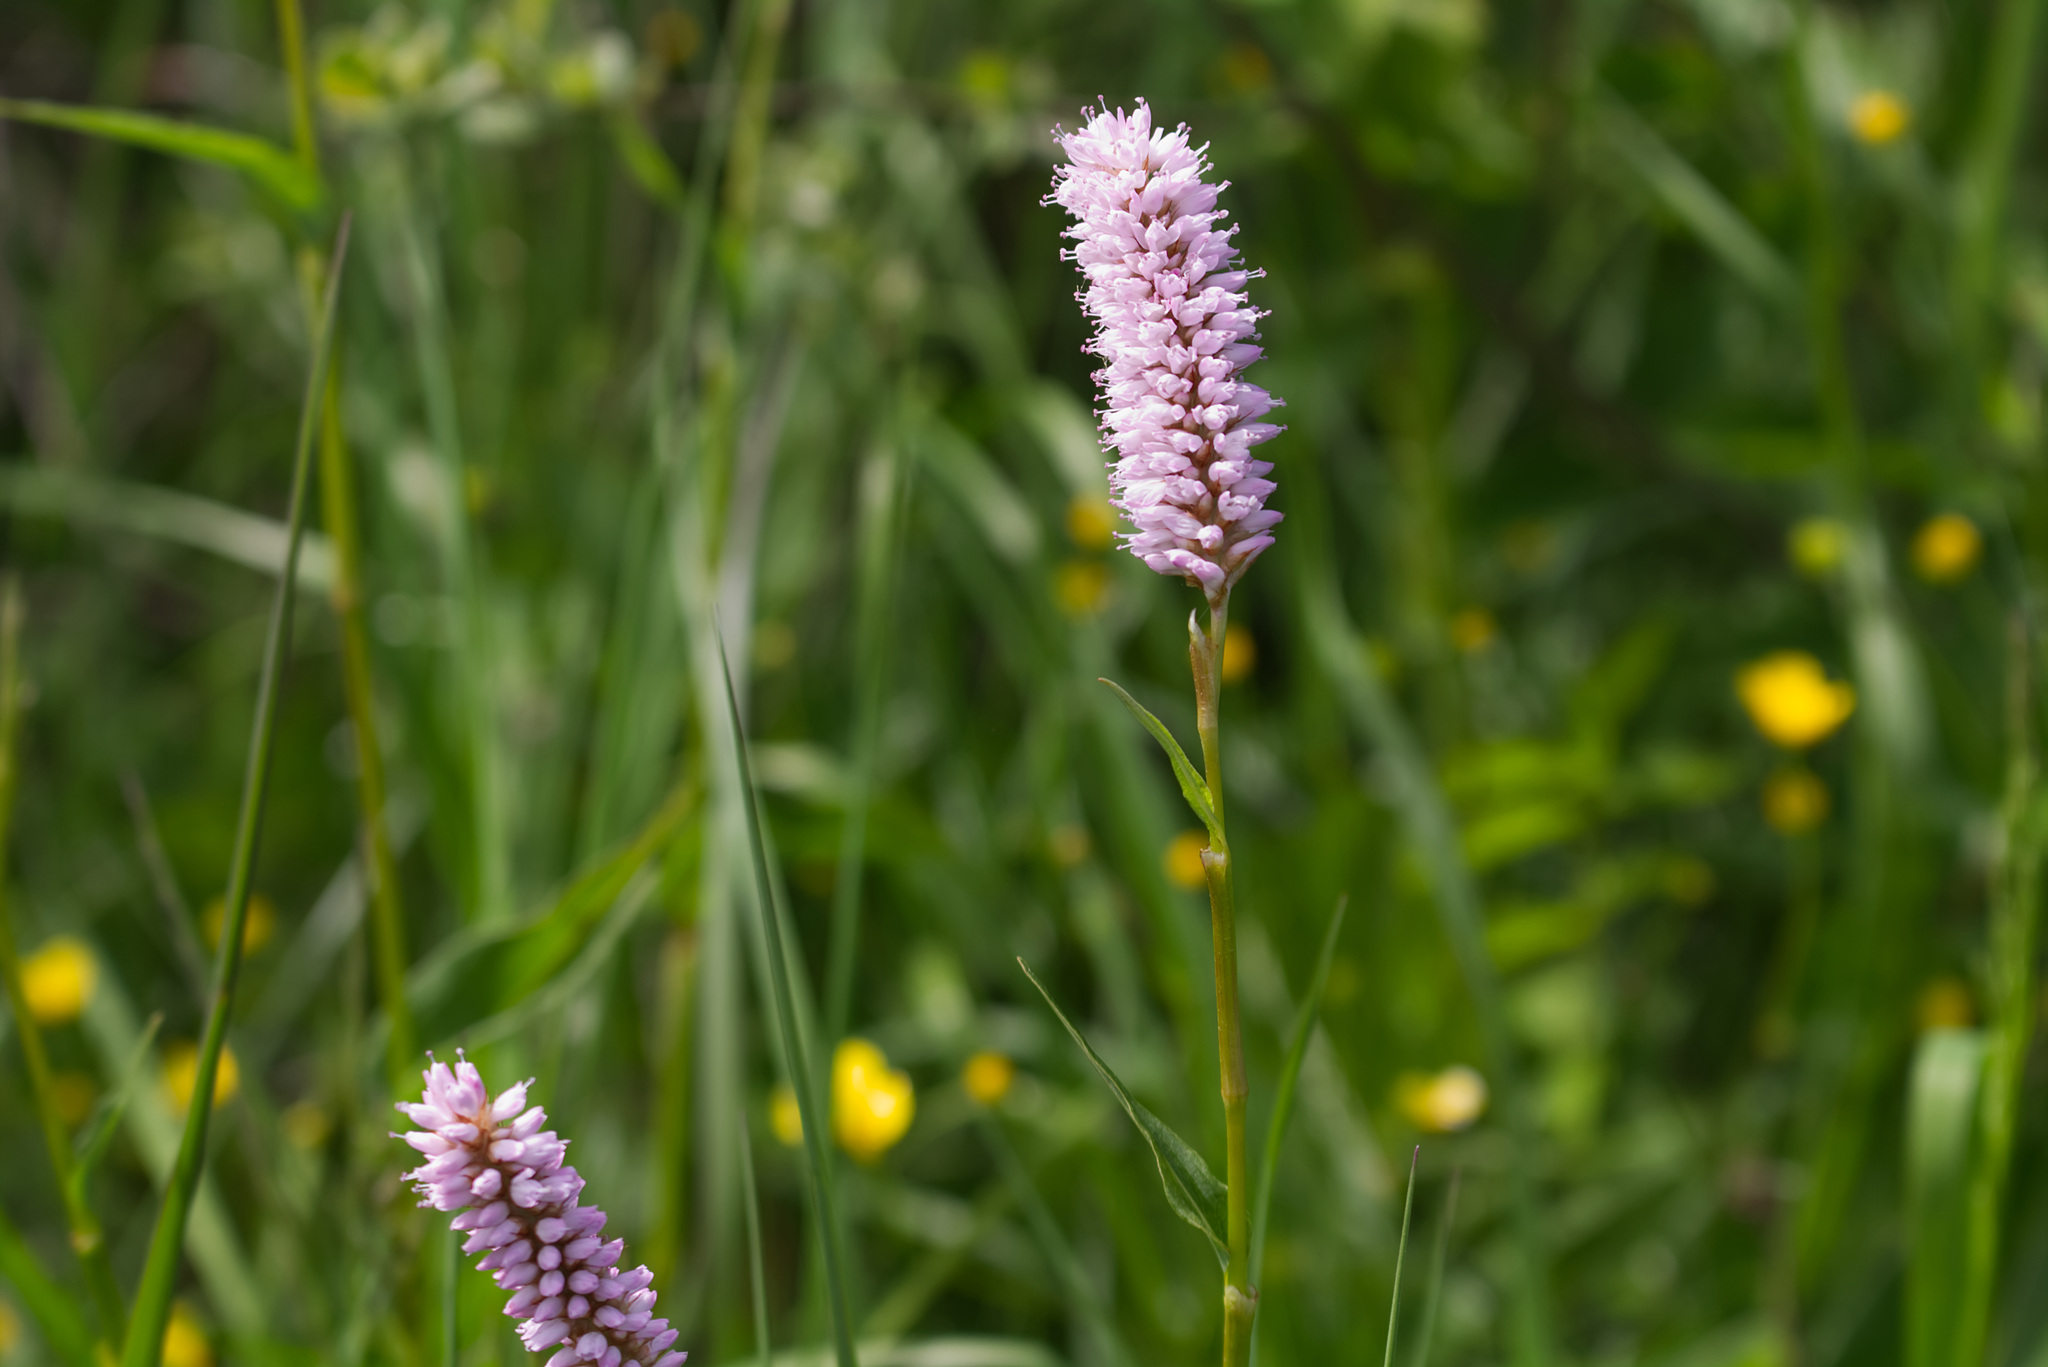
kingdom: Plantae
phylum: Tracheophyta
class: Magnoliopsida
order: Caryophyllales
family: Polygonaceae
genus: Bistorta
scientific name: Bistorta officinalis
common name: Common bistort
